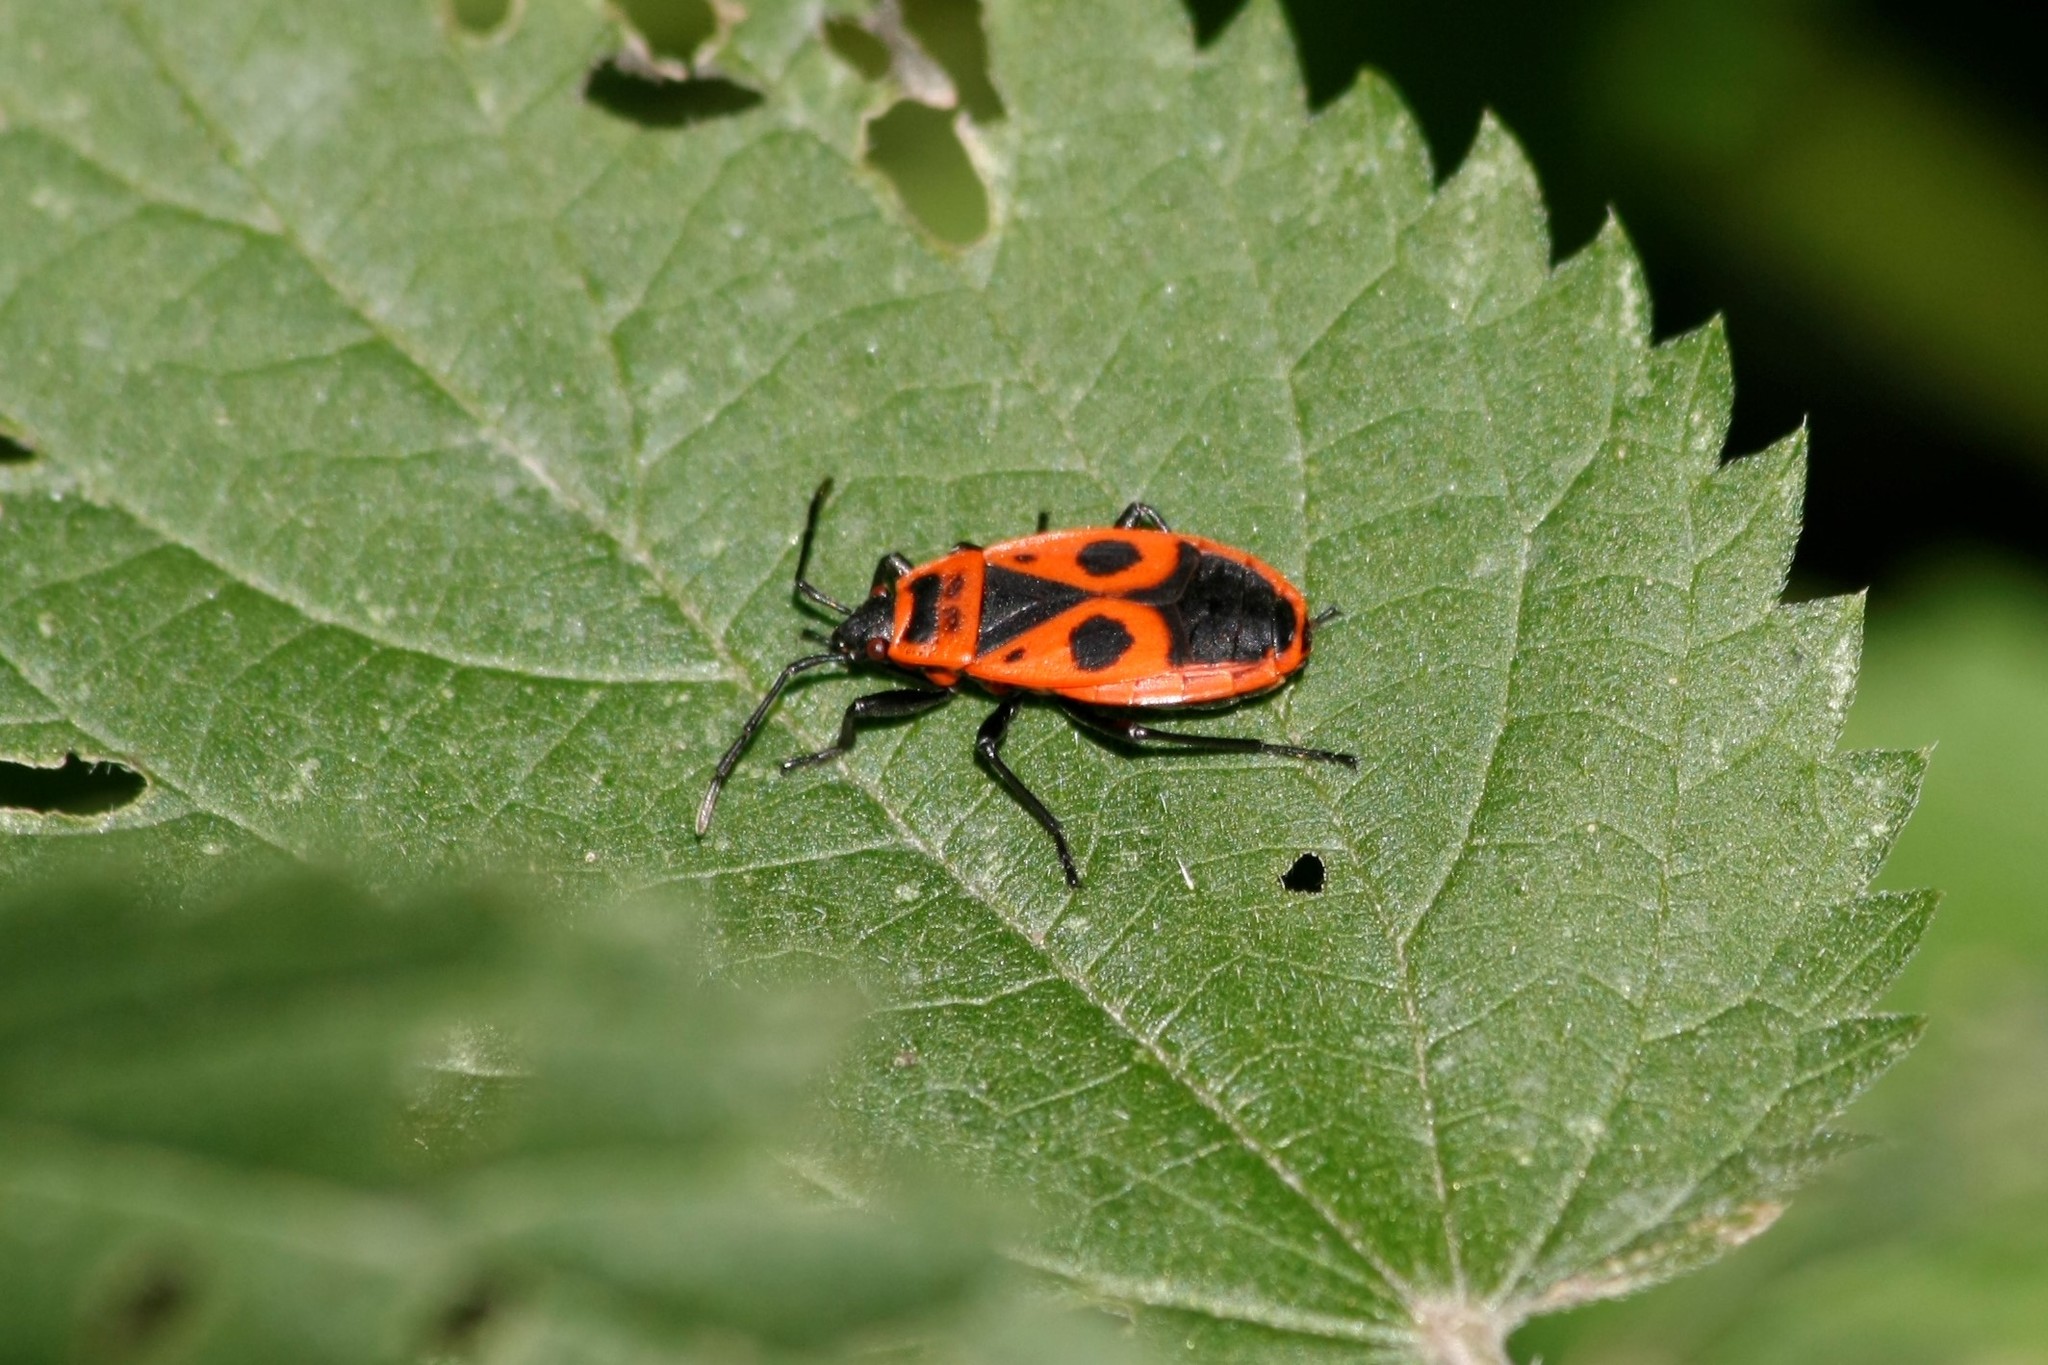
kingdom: Animalia
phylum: Arthropoda
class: Insecta
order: Hemiptera
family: Pyrrhocoridae
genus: Pyrrhocoris
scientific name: Pyrrhocoris apterus
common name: Firebug
